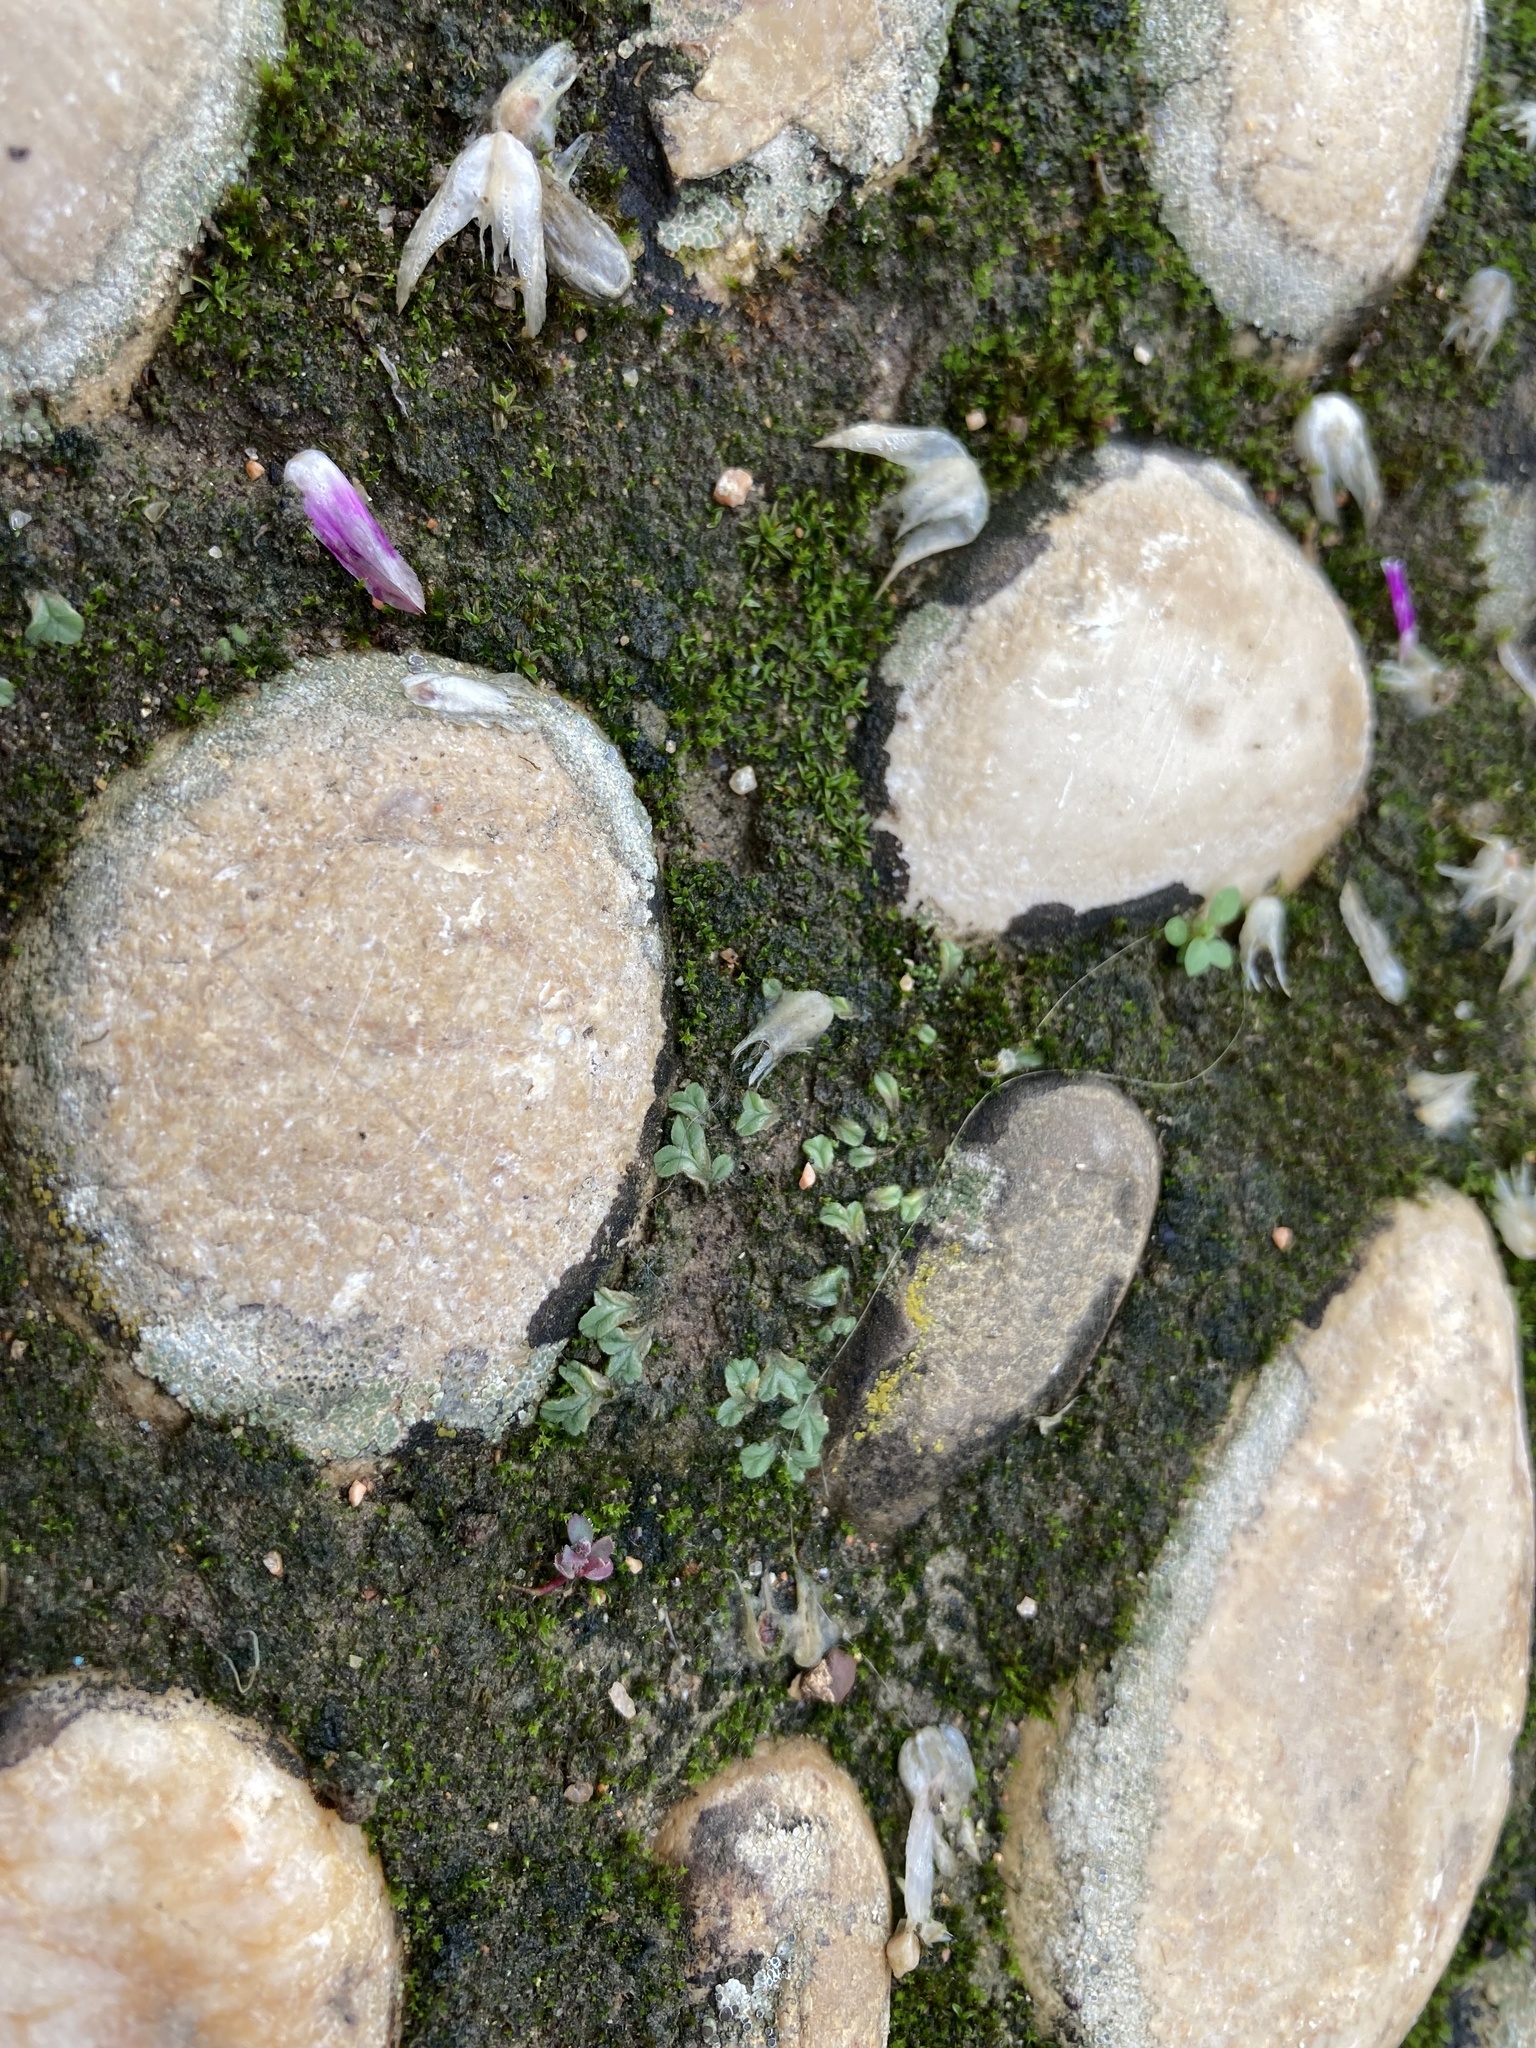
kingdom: Plantae
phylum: Marchantiophyta
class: Marchantiopsida
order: Marchantiales
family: Ricciaceae
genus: Riccia
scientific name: Riccia lamellosa
